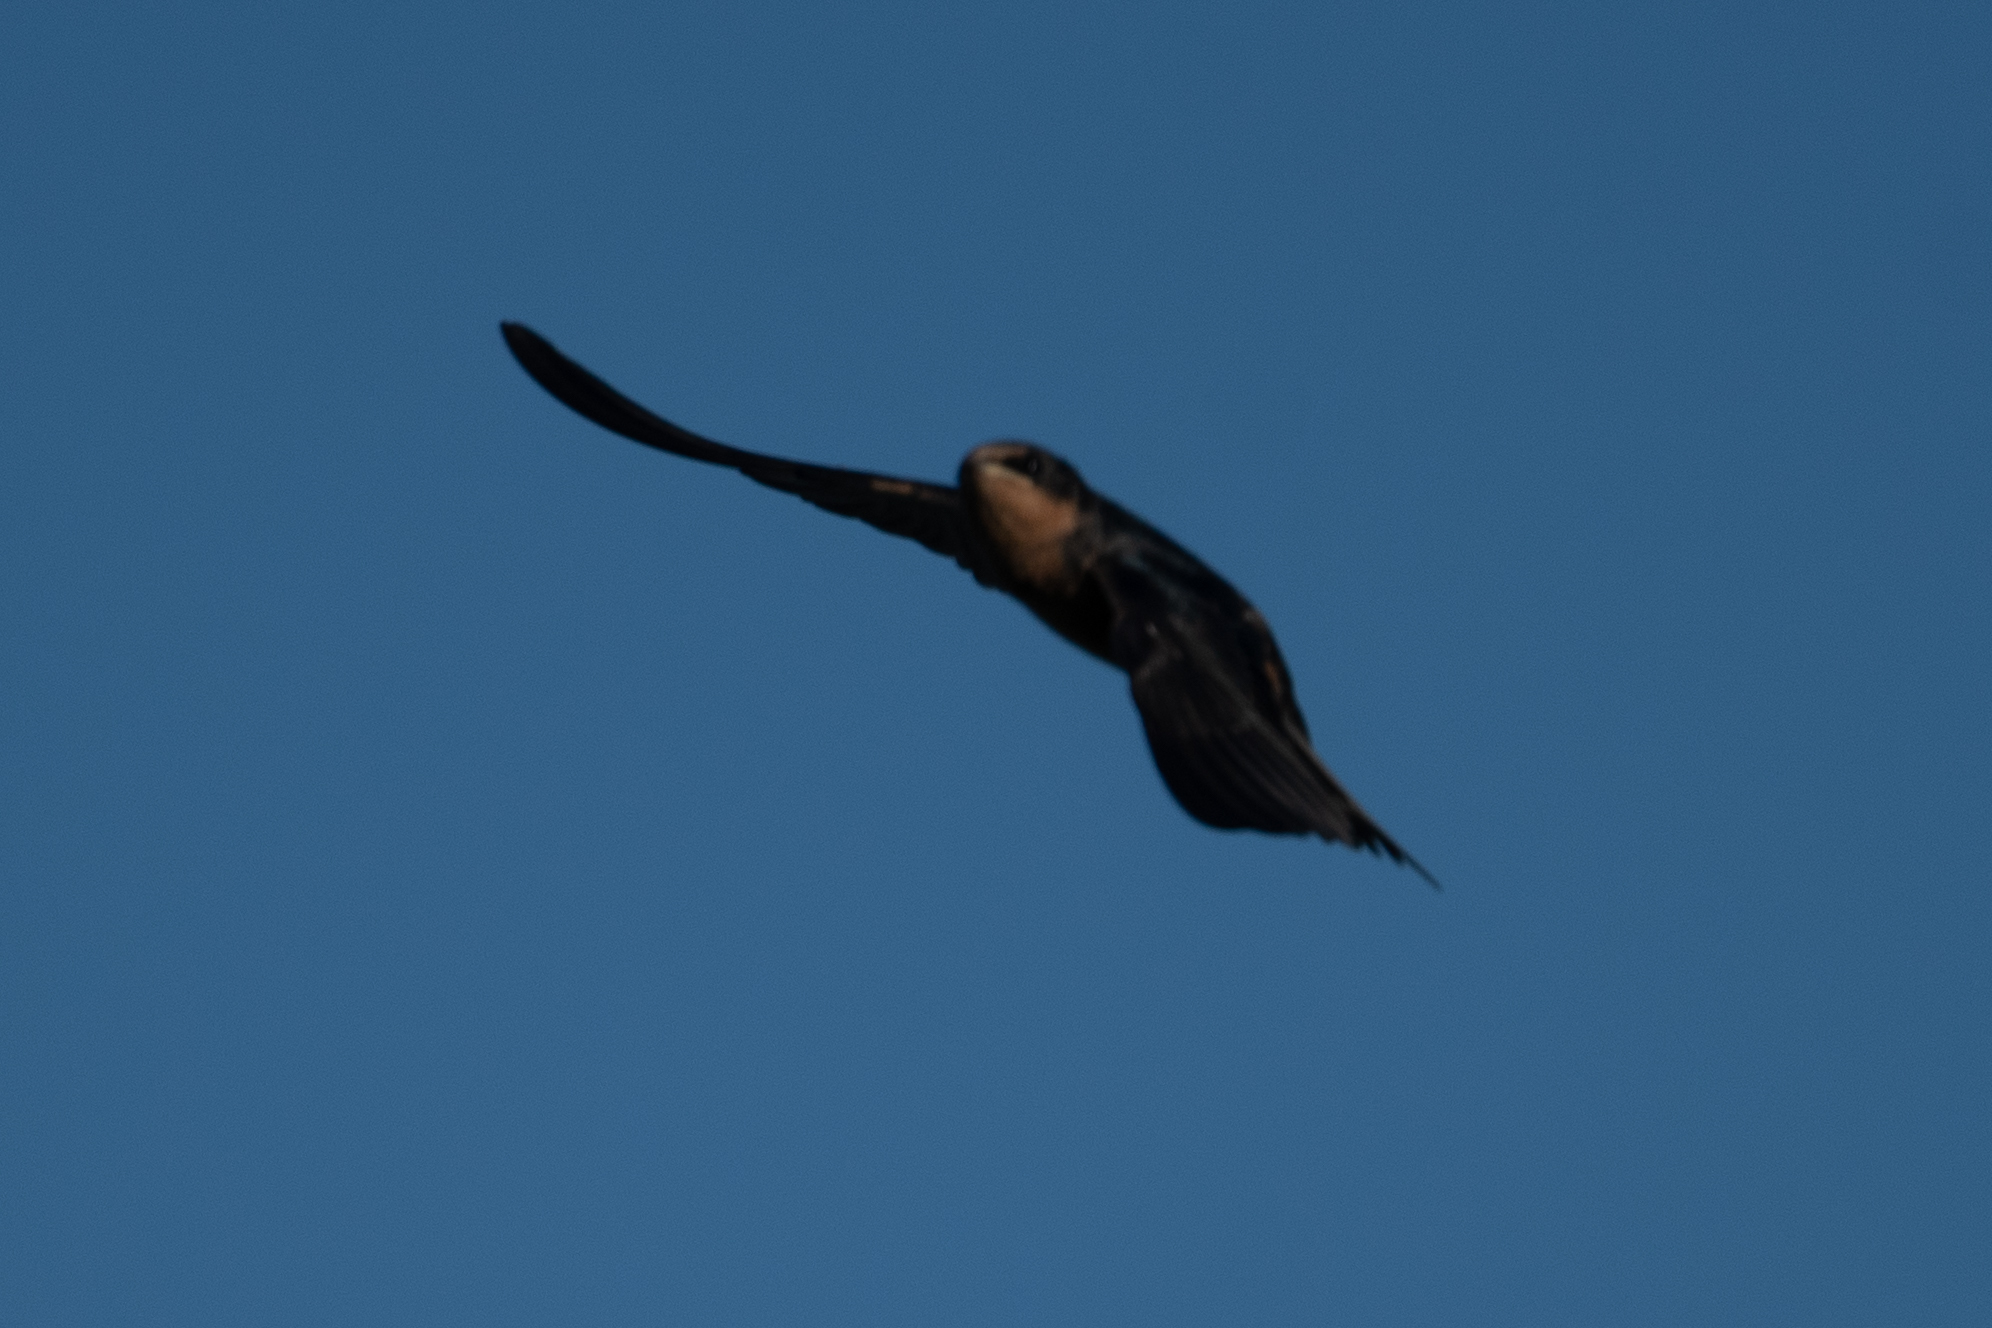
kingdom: Animalia
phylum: Chordata
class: Aves
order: Passeriformes
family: Hirundinidae
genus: Hirundo
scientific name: Hirundo rustica
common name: Barn swallow
